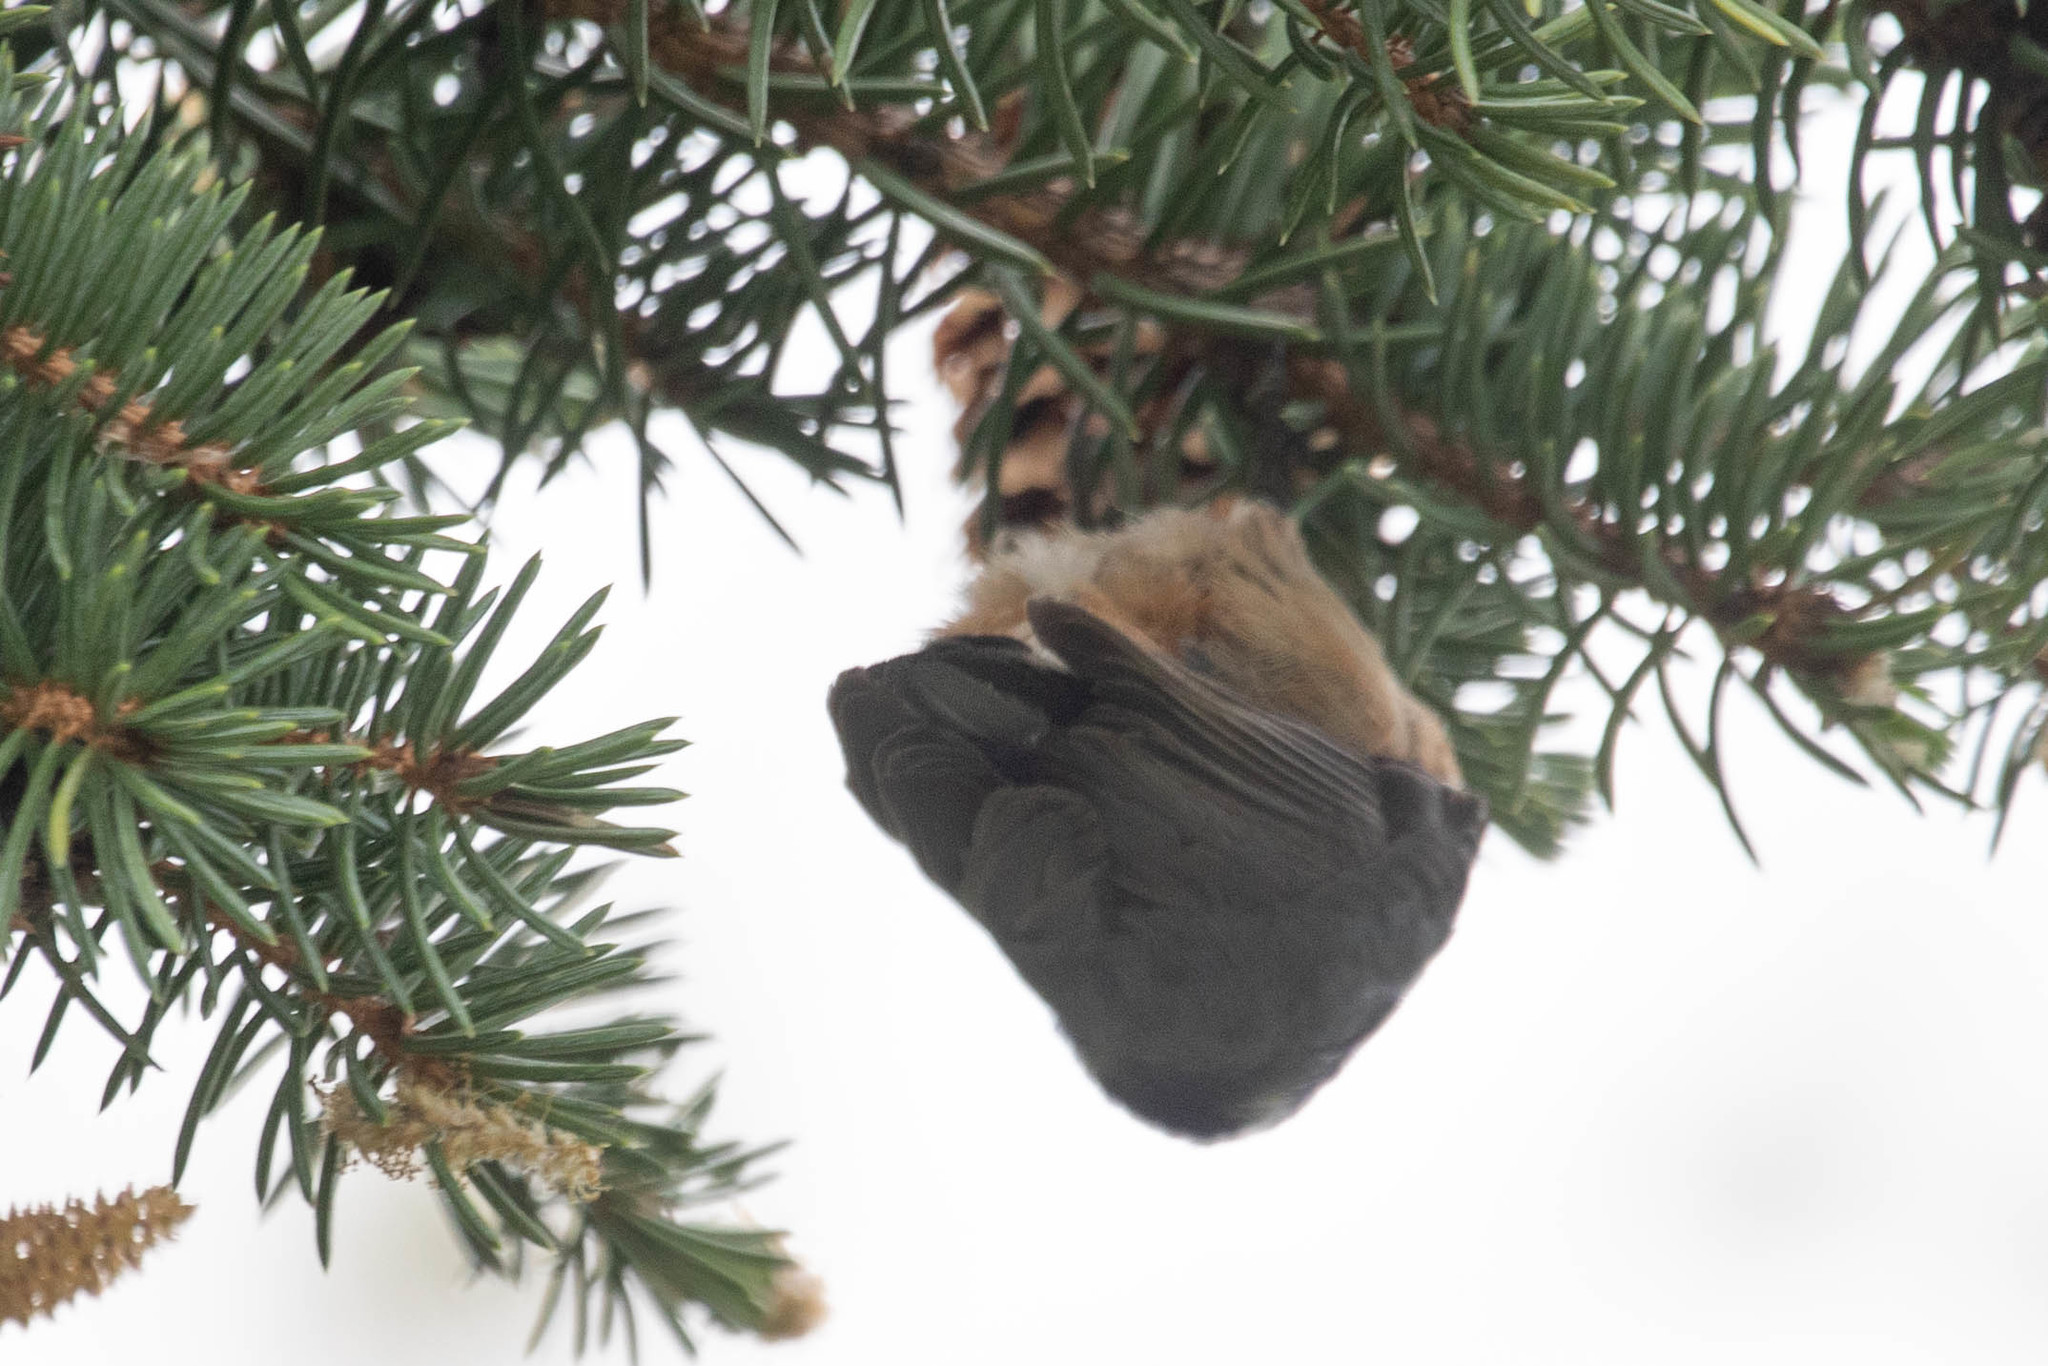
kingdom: Animalia
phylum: Chordata
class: Aves
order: Passeriformes
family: Sittidae
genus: Sitta
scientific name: Sitta canadensis
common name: Red-breasted nuthatch
